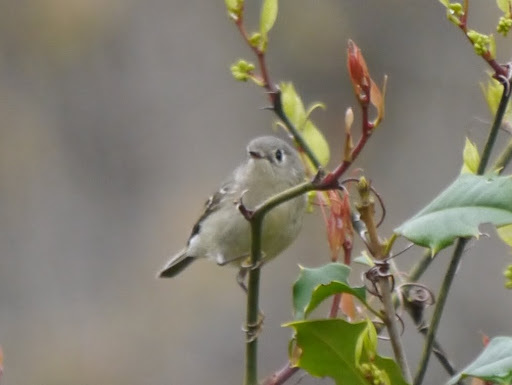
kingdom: Animalia
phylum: Chordata
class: Aves
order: Passeriformes
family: Regulidae
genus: Regulus
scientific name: Regulus calendula
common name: Ruby-crowned kinglet
